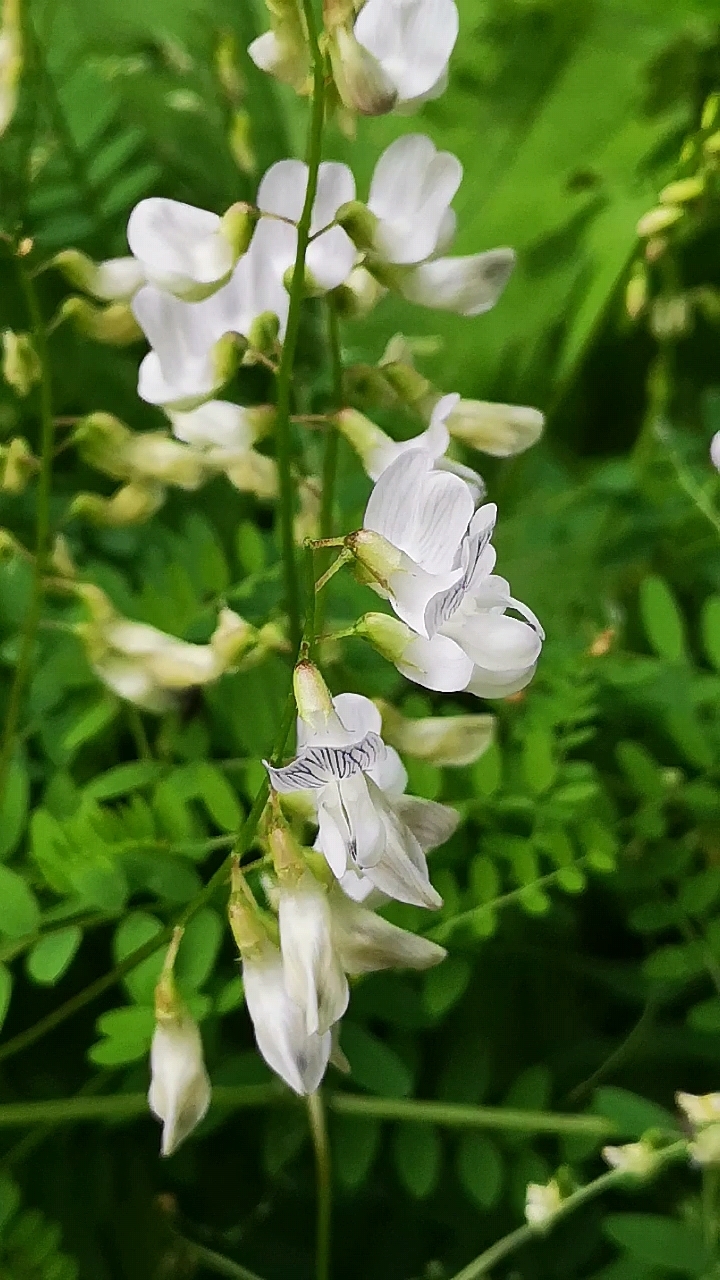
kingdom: Plantae
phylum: Tracheophyta
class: Magnoliopsida
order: Fabales
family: Fabaceae
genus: Vicia
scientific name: Vicia sylvatica
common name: Wood vetch
